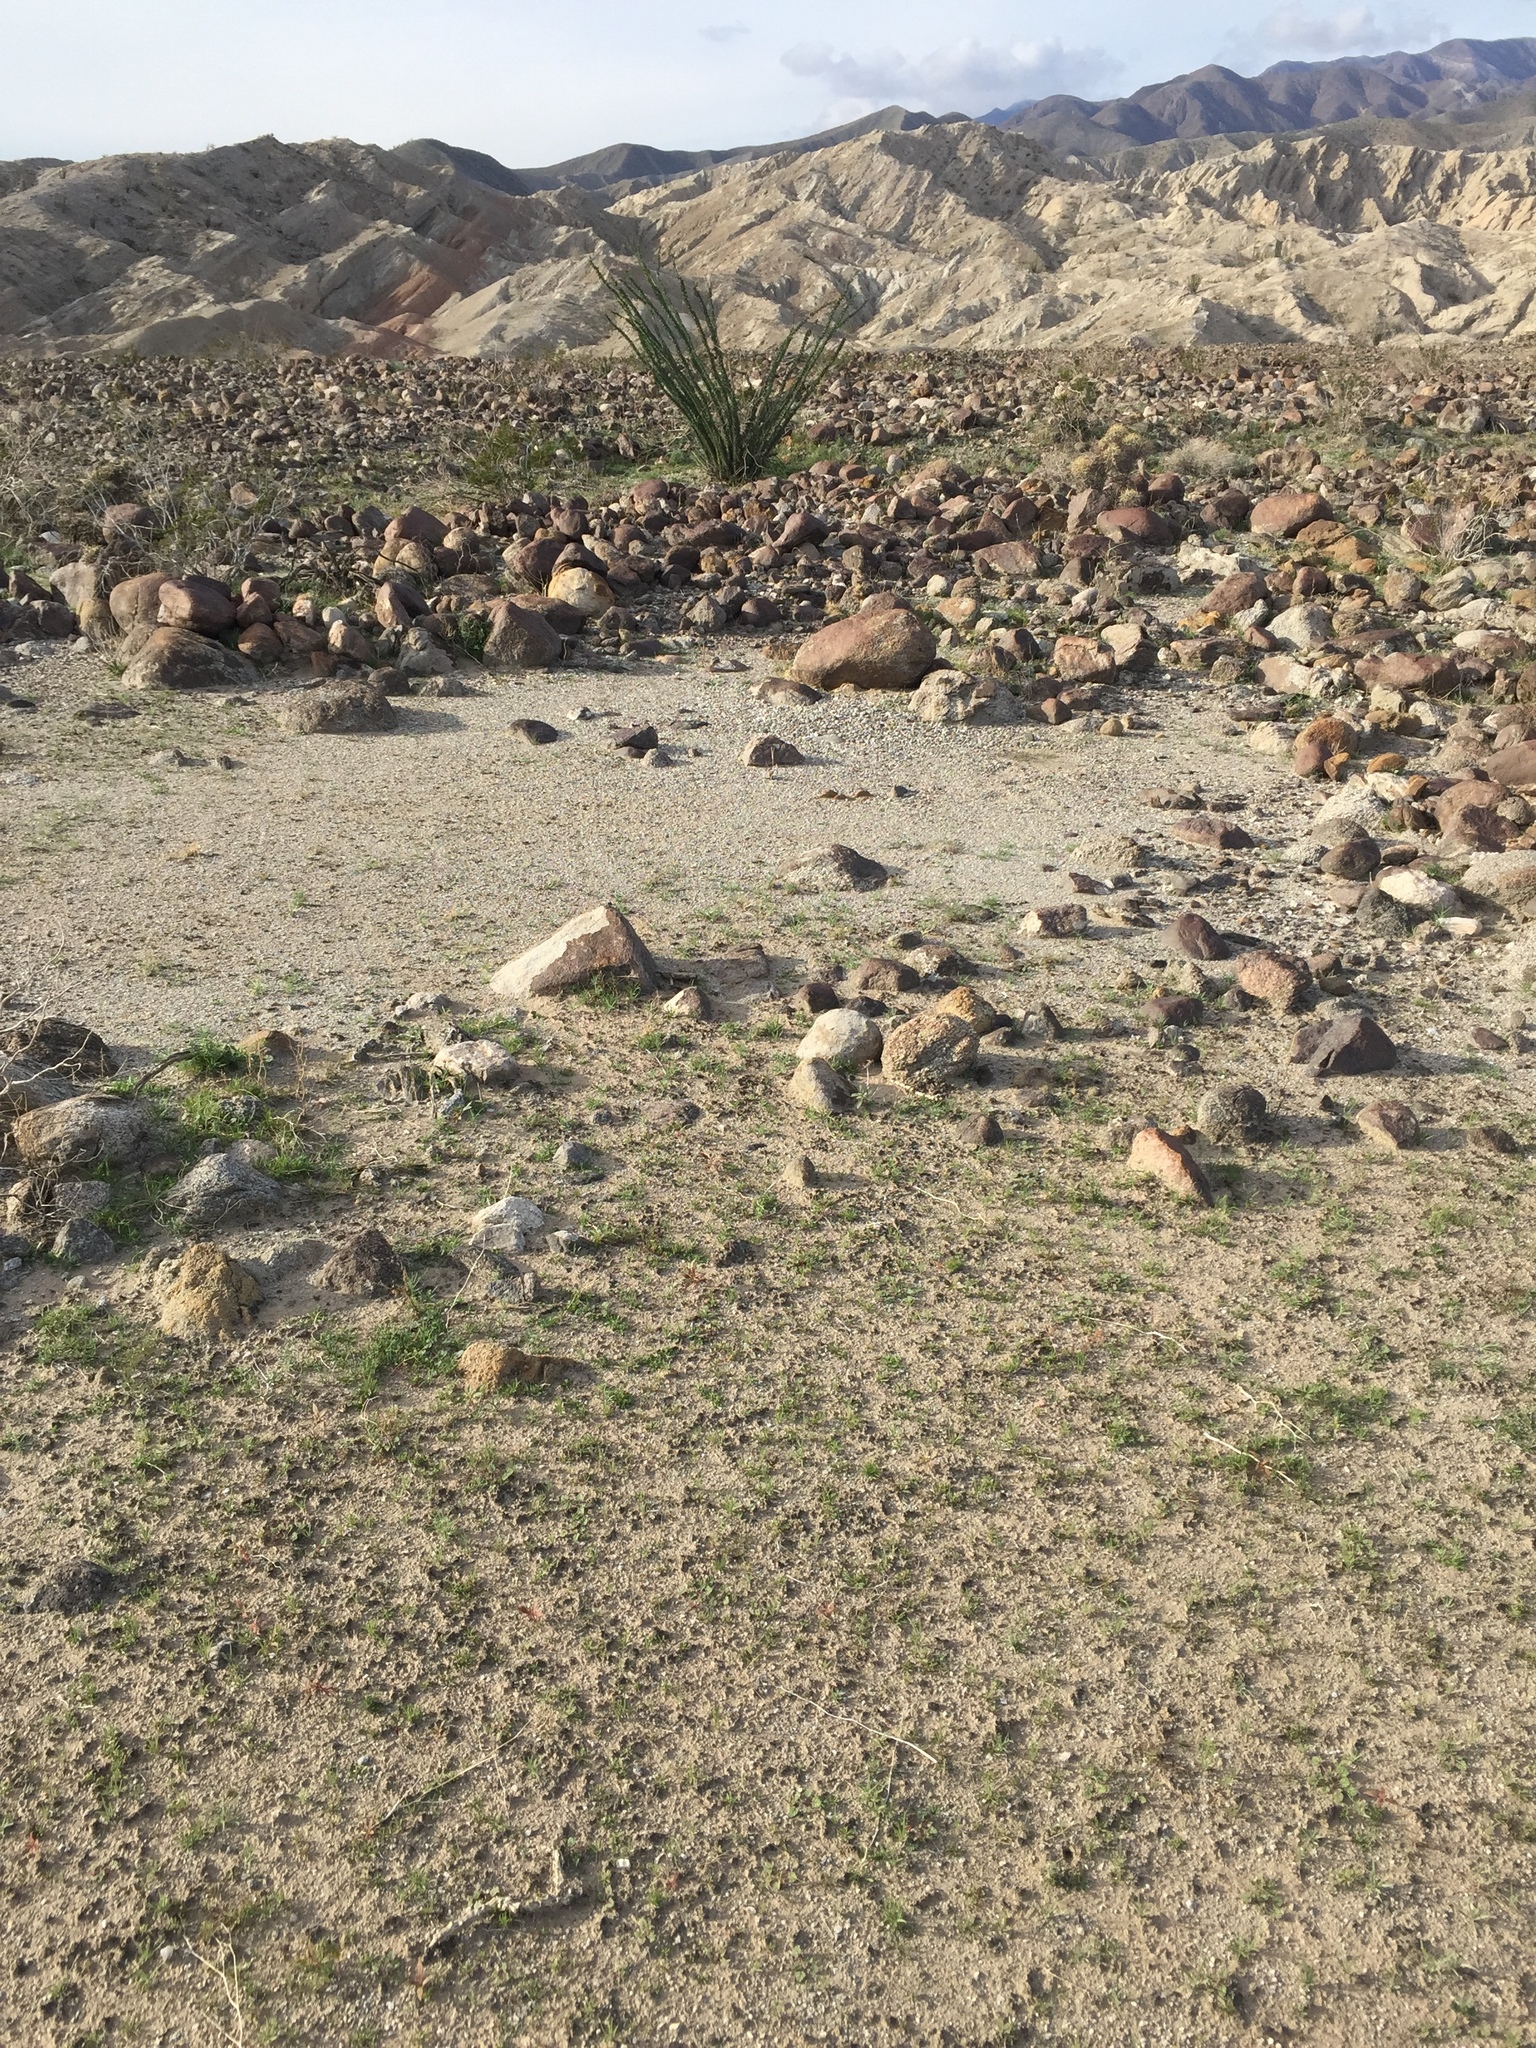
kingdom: Plantae
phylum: Tracheophyta
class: Magnoliopsida
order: Ericales
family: Fouquieriaceae
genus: Fouquieria
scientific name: Fouquieria splendens
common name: Vine-cactus
